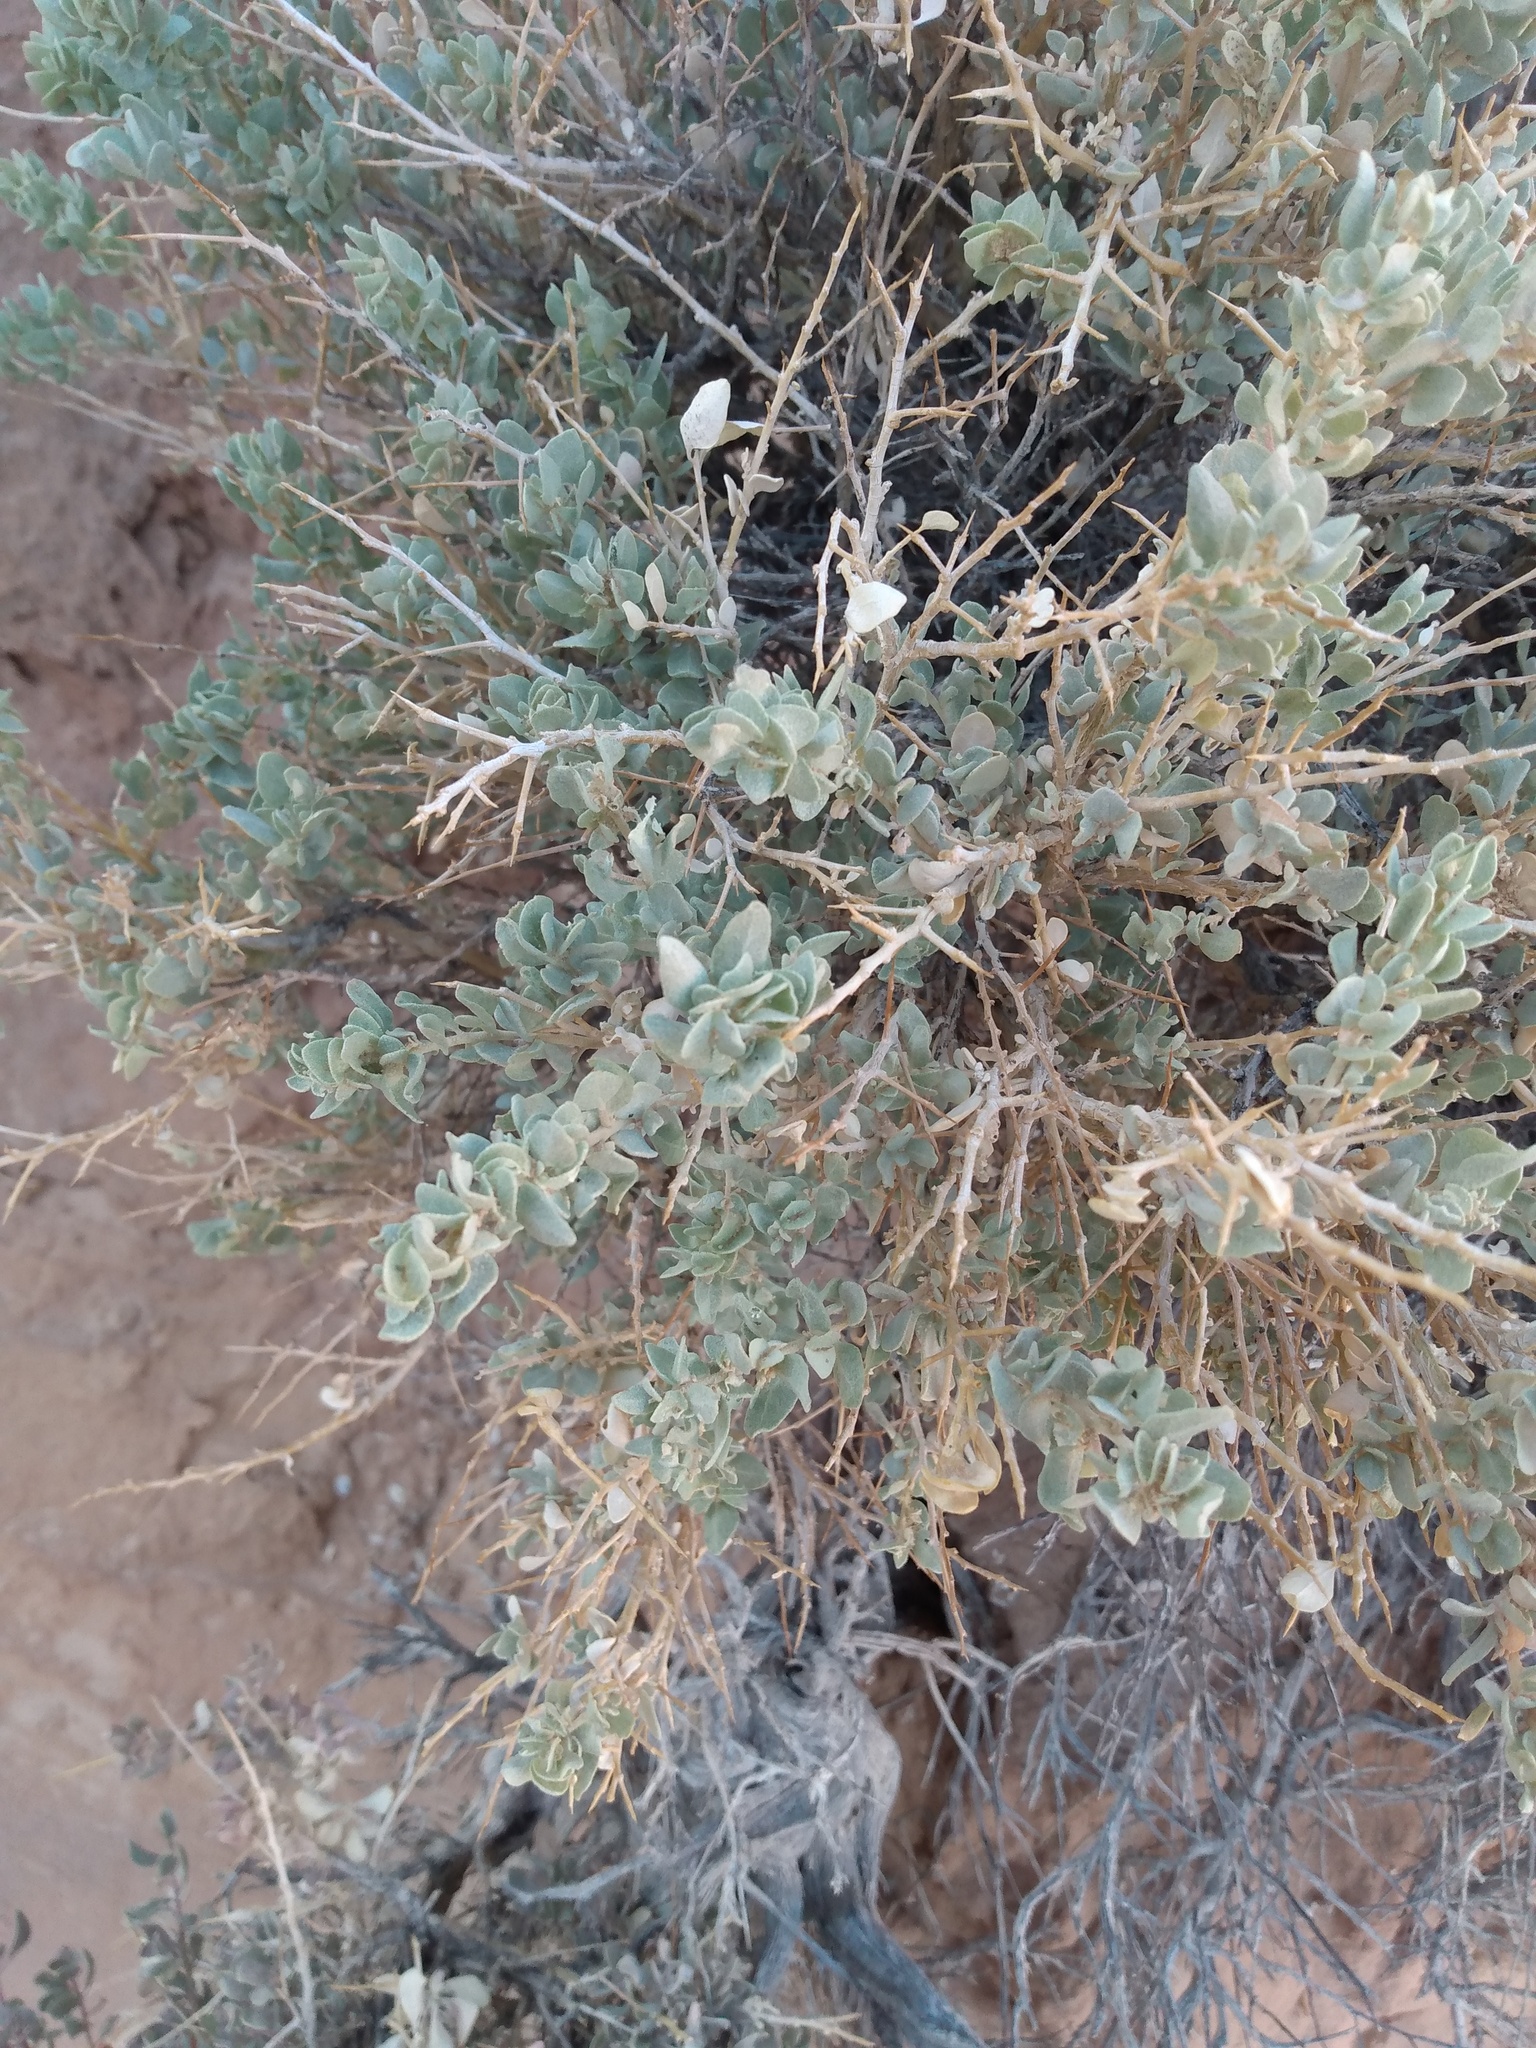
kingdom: Plantae
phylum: Tracheophyta
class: Magnoliopsida
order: Caryophyllales
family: Amaranthaceae
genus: Atriplex
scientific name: Atriplex confertifolia
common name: Shadscale
